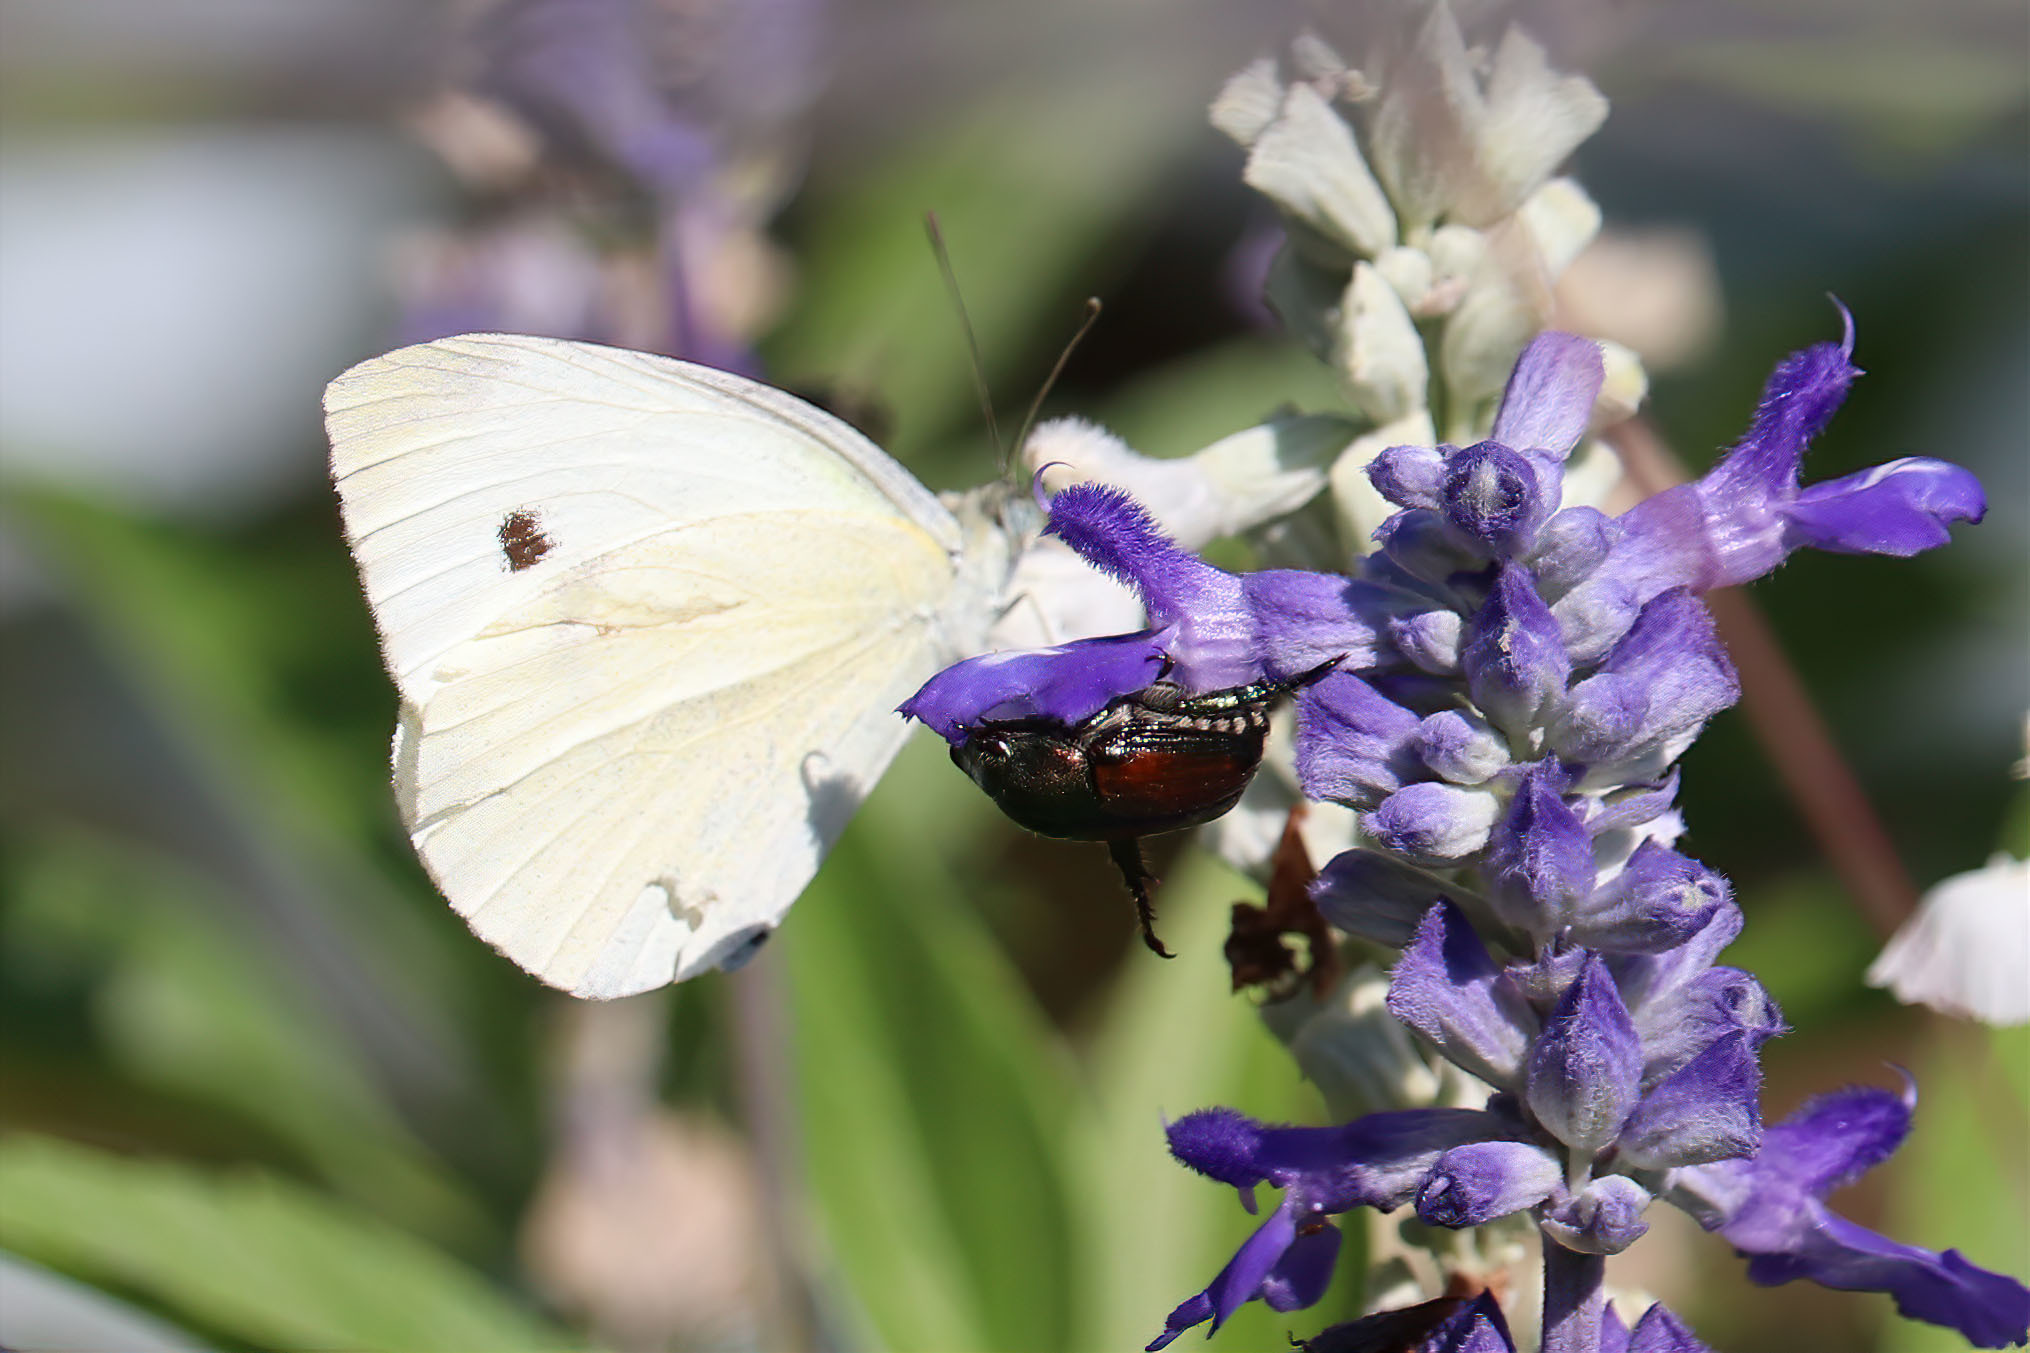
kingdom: Animalia
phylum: Arthropoda
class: Insecta
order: Lepidoptera
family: Pieridae
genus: Pieris
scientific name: Pieris rapae
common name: Small white
